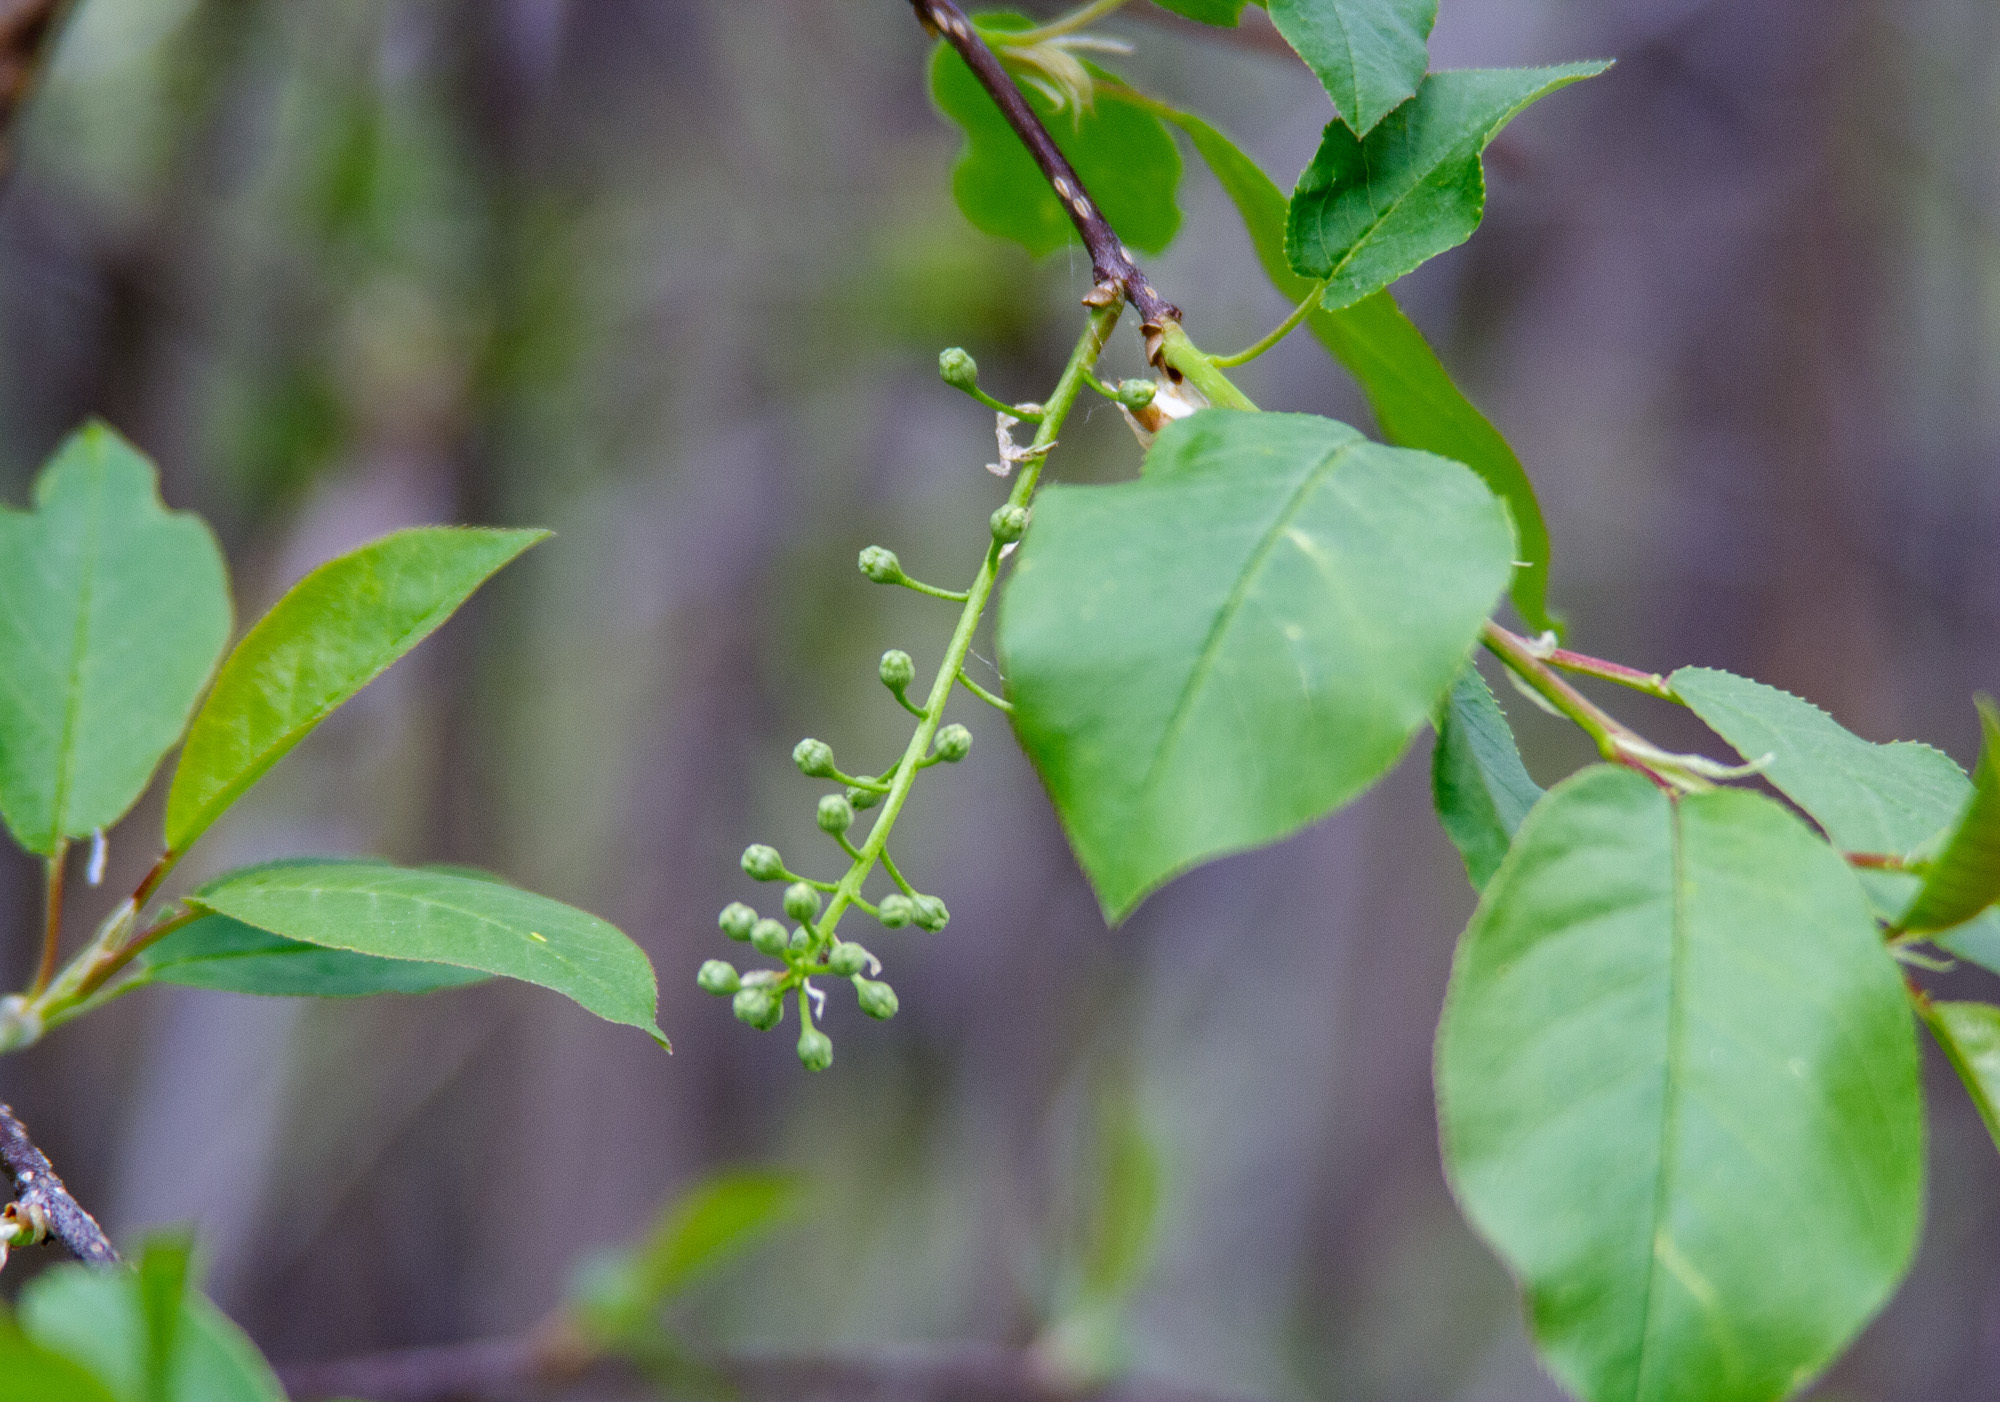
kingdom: Plantae
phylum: Tracheophyta
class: Magnoliopsida
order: Rosales
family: Rosaceae
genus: Prunus
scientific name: Prunus virginiana
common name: Chokecherry
